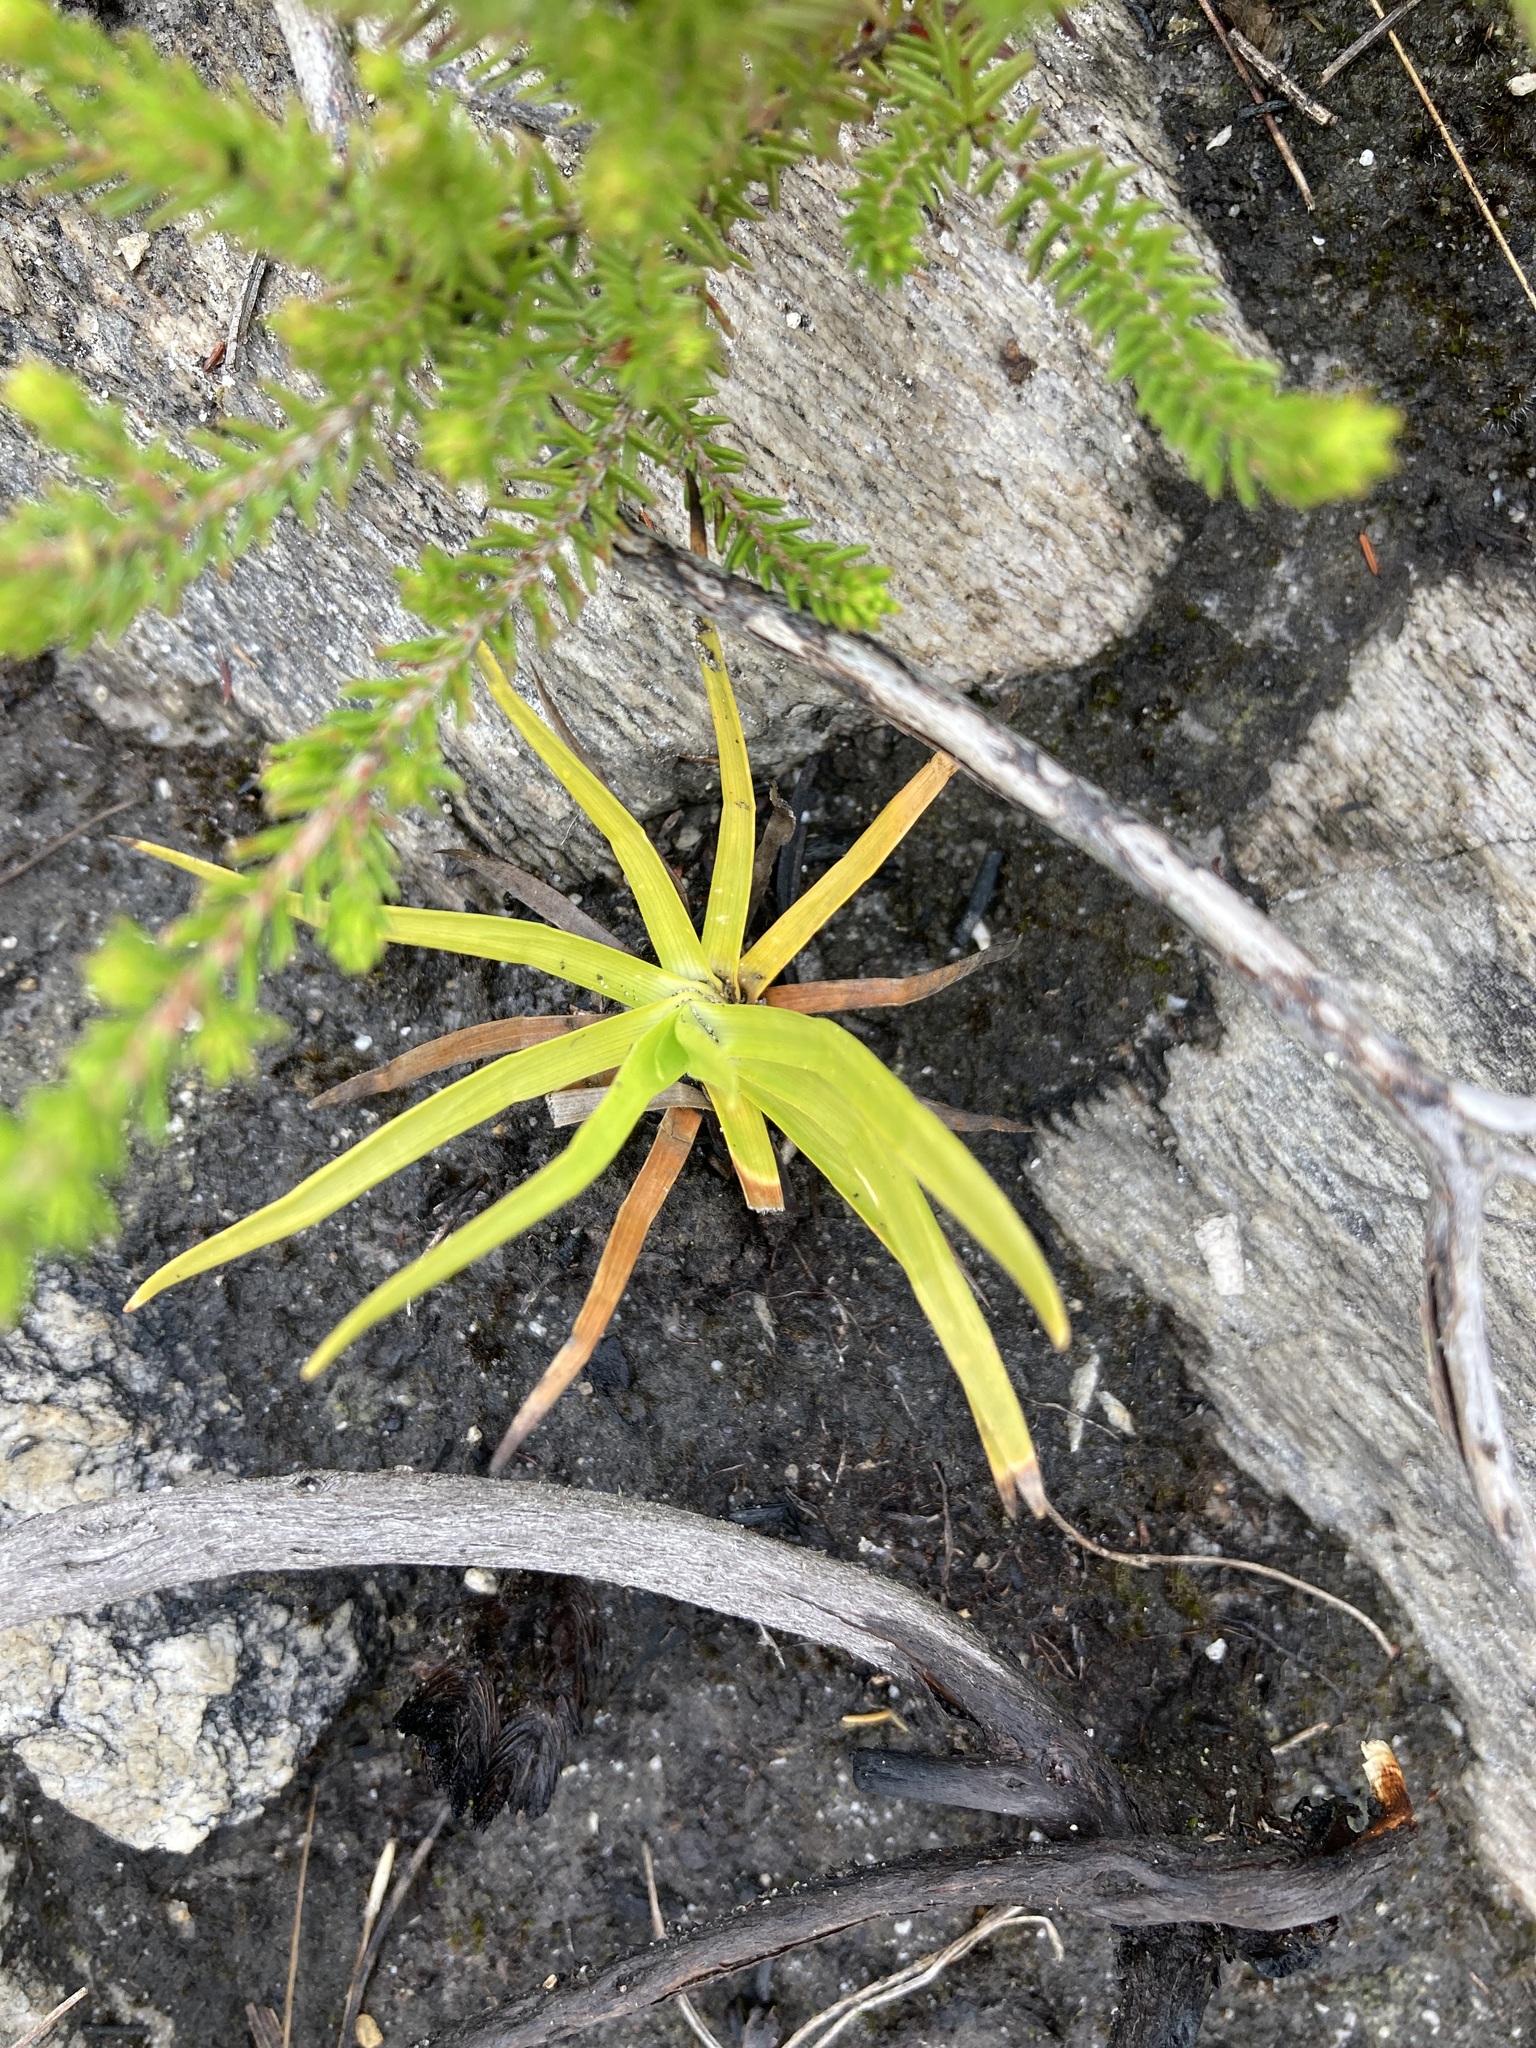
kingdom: Plantae
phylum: Tracheophyta
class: Liliopsida
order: Asparagales
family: Orchidaceae
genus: Disa
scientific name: Disa bivalvata
